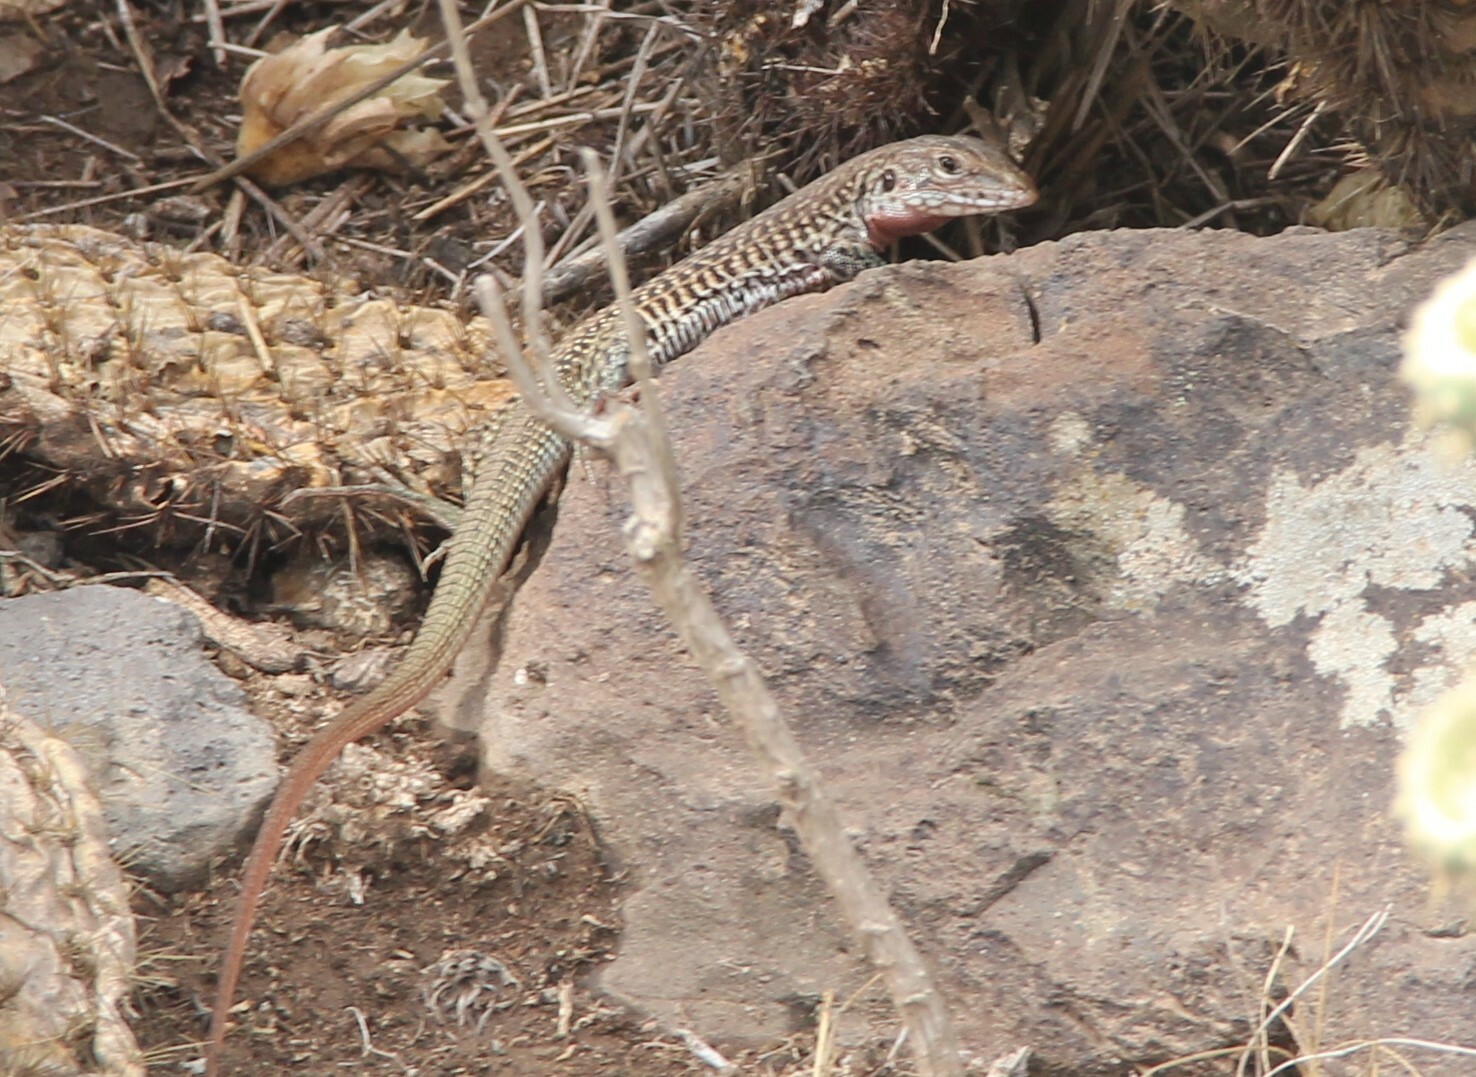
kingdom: Animalia
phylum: Chordata
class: Squamata
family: Teiidae
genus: Aspidoscelis
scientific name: Aspidoscelis gularis
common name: Eastern spotted whiptail
